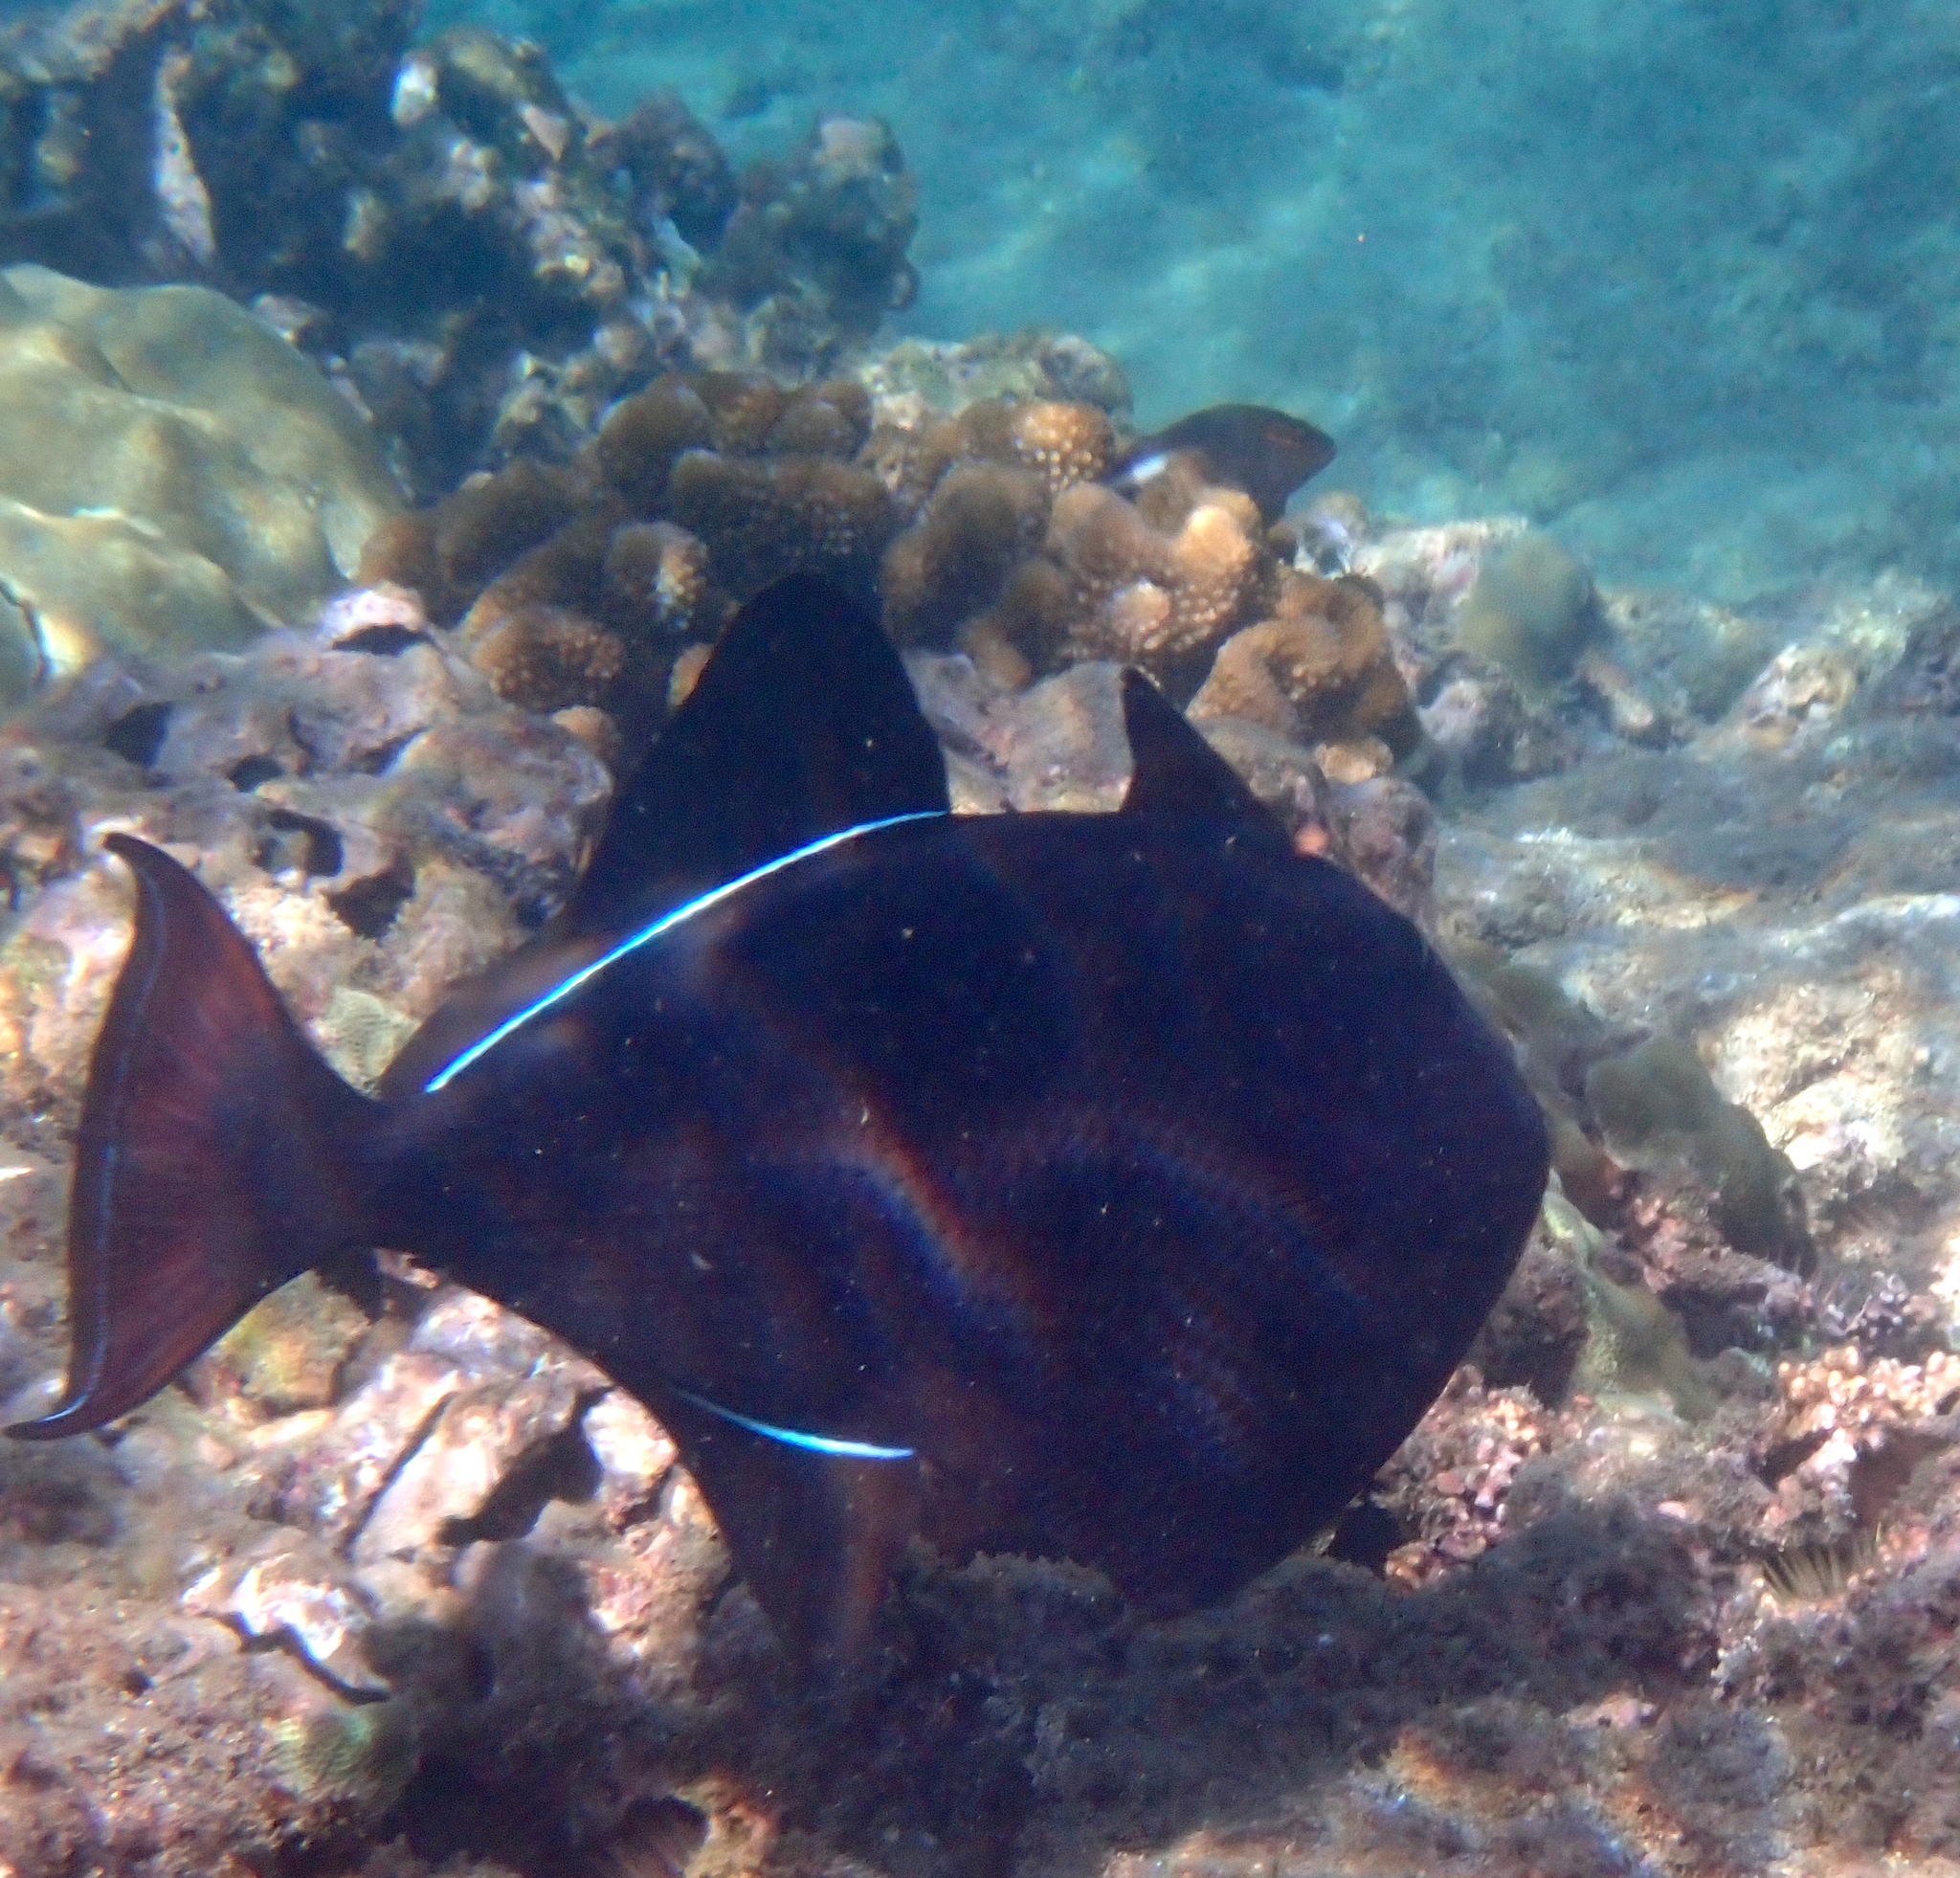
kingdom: Animalia
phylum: Chordata
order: Tetraodontiformes
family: Balistidae
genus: Melichthys
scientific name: Melichthys niger
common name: Black durgon
